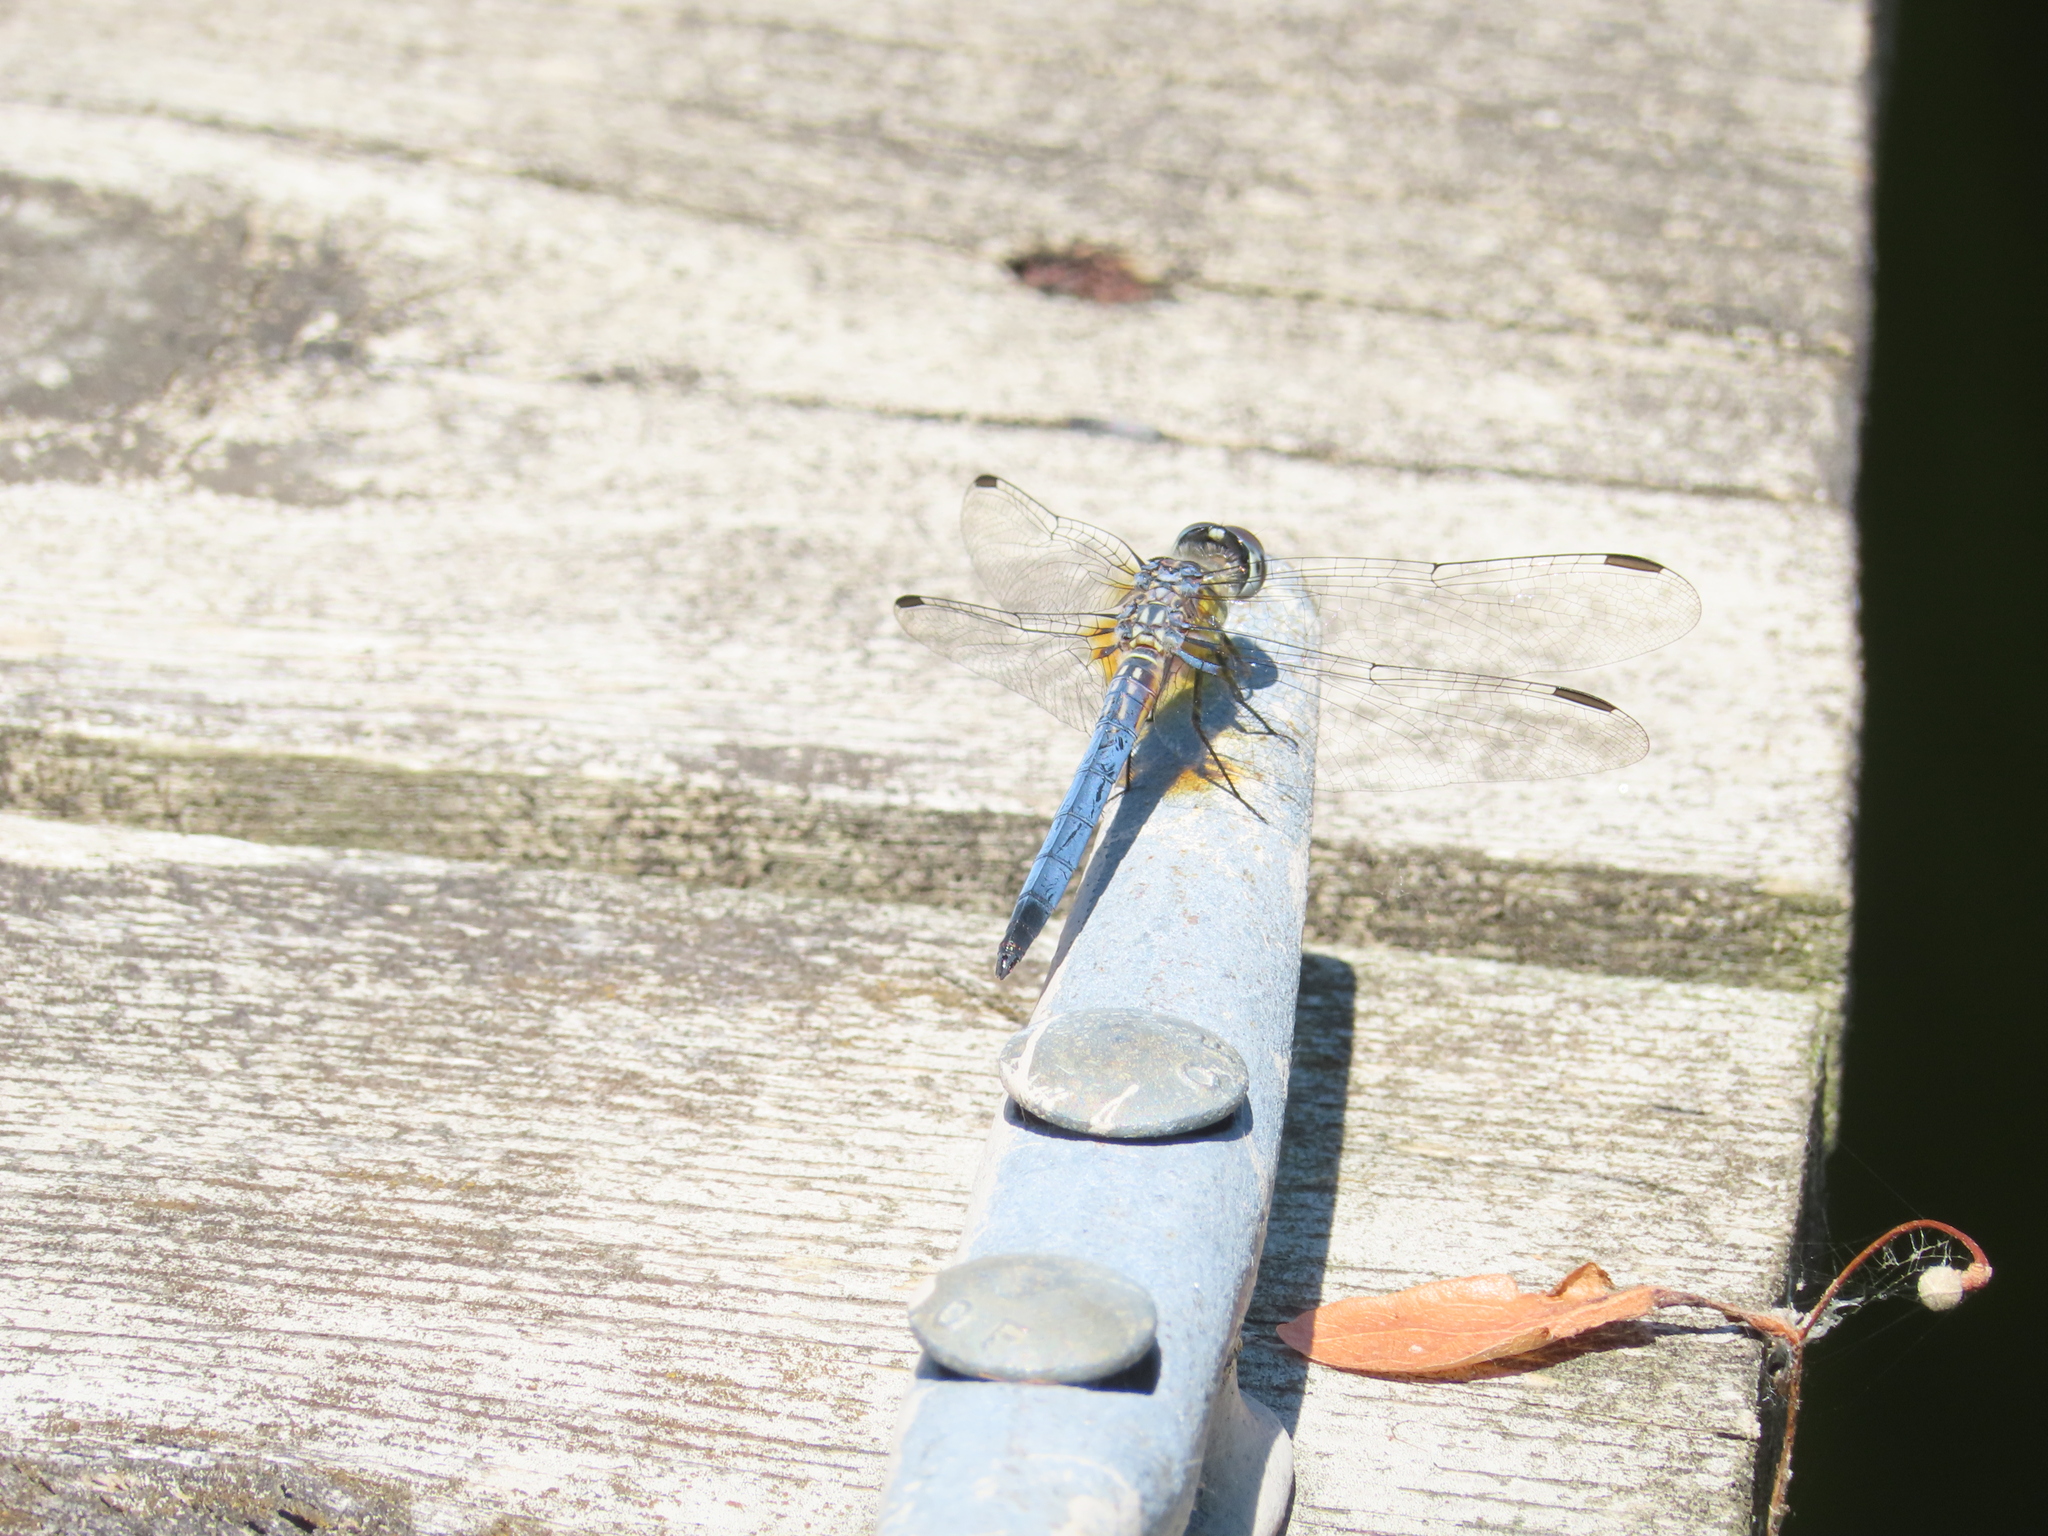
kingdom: Animalia
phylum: Arthropoda
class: Insecta
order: Odonata
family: Libellulidae
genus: Pachydiplax
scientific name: Pachydiplax longipennis
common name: Blue dasher
